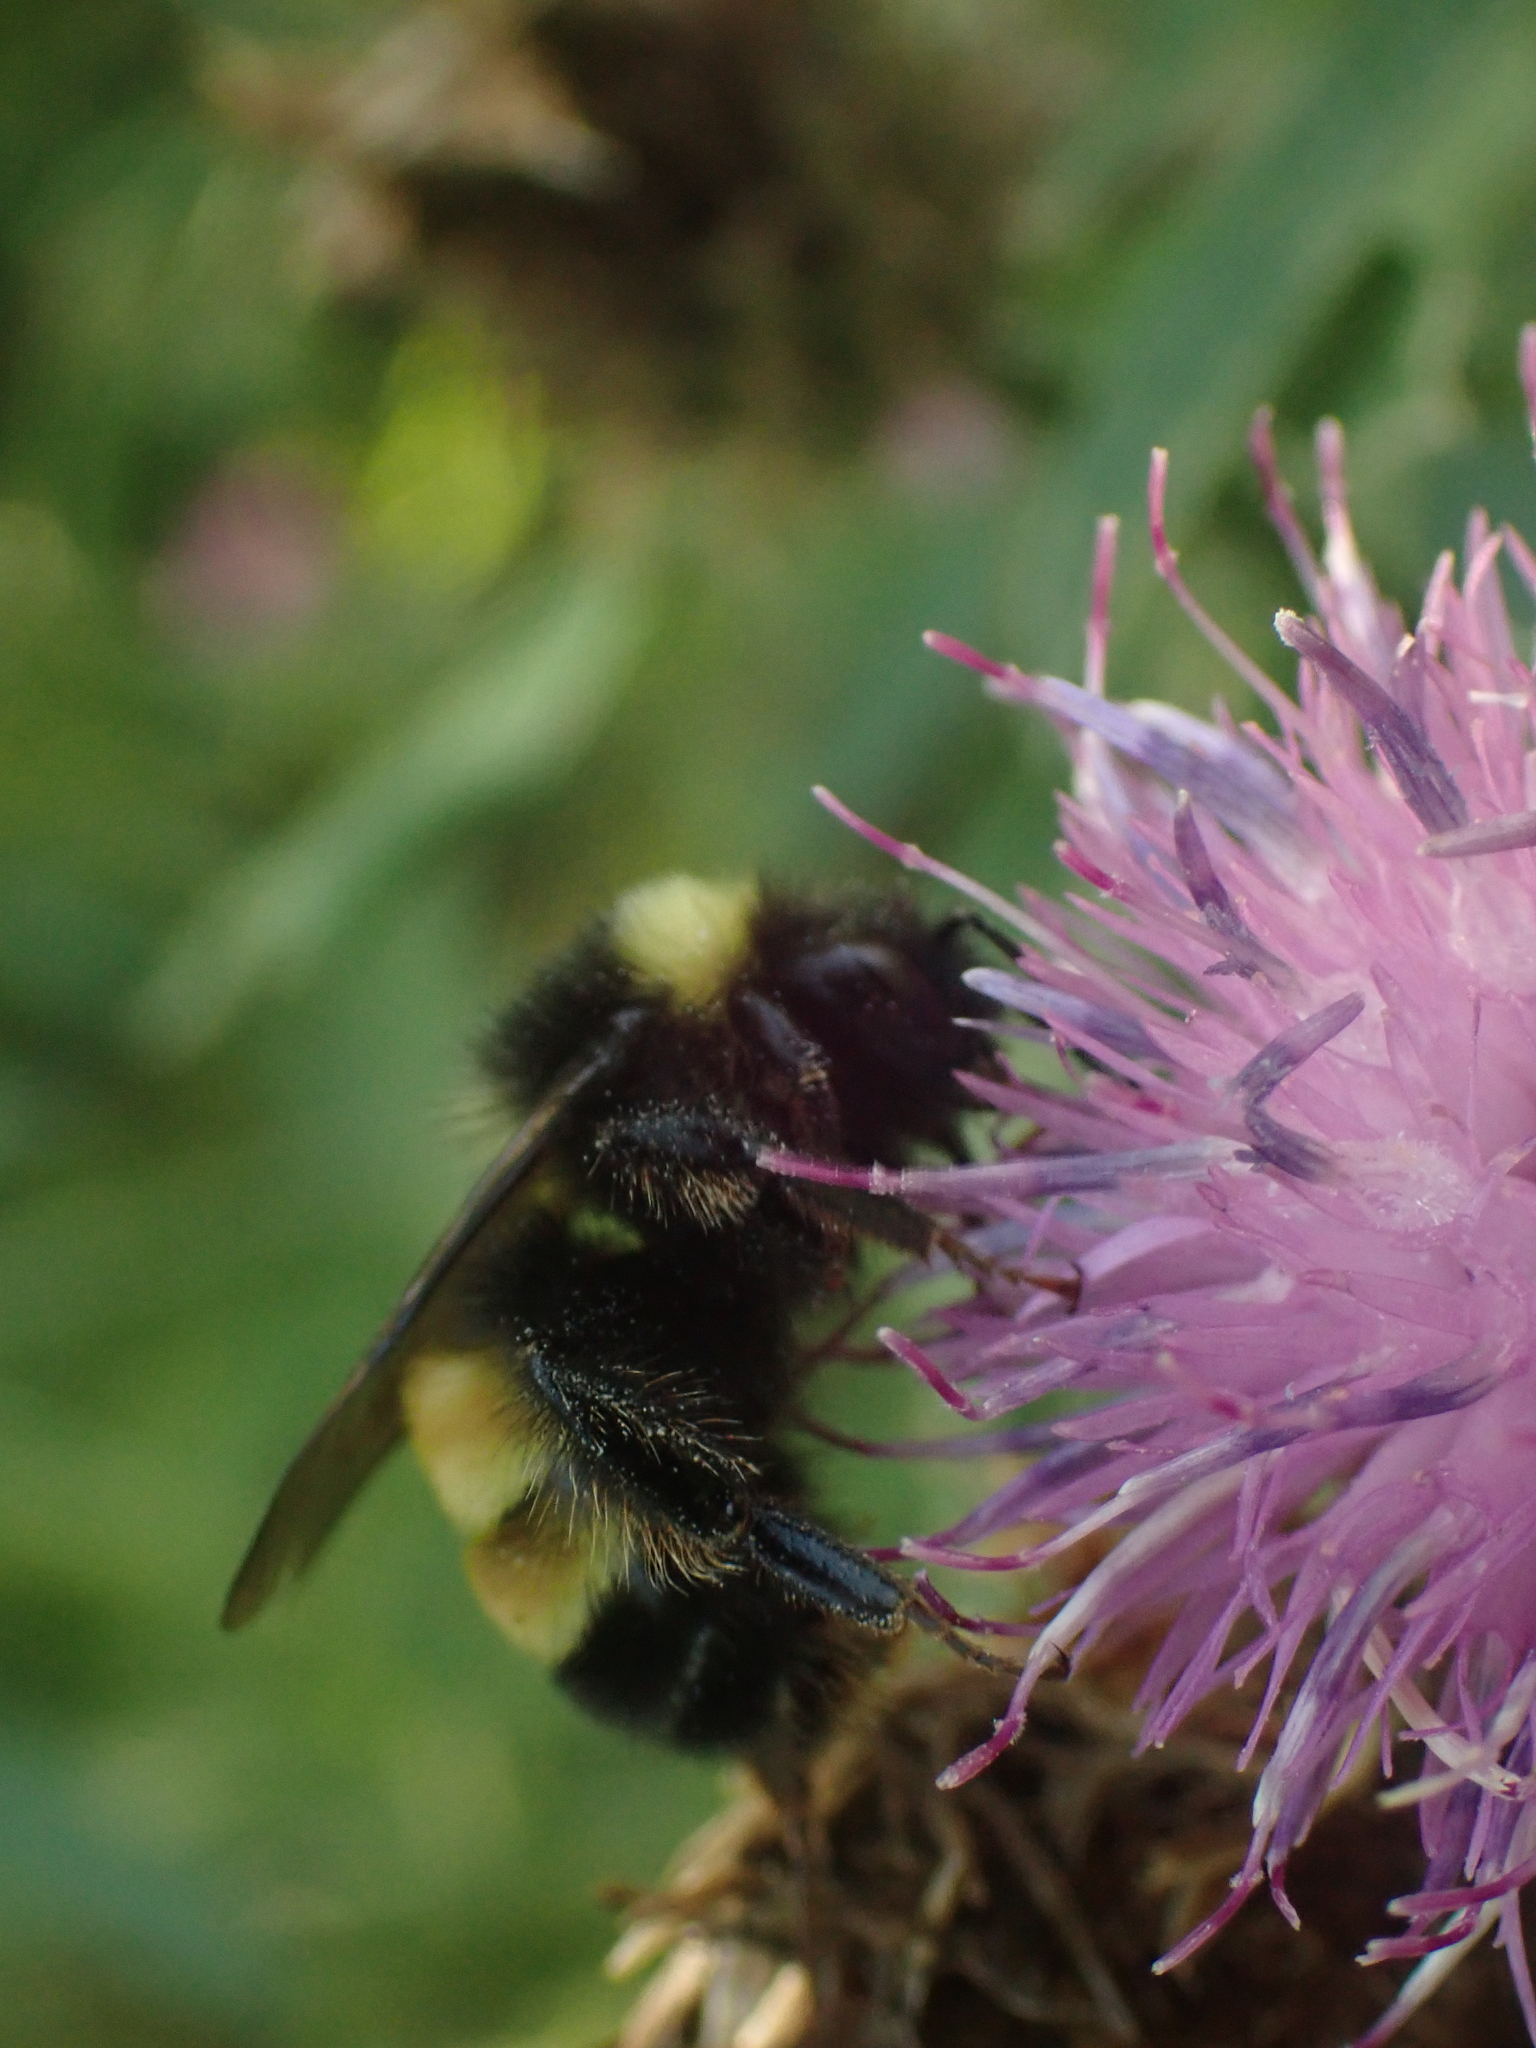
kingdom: Animalia
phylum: Arthropoda
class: Insecta
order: Hymenoptera
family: Apidae
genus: Bombus
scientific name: Bombus terricola
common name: Yellow-banded bumble bee
